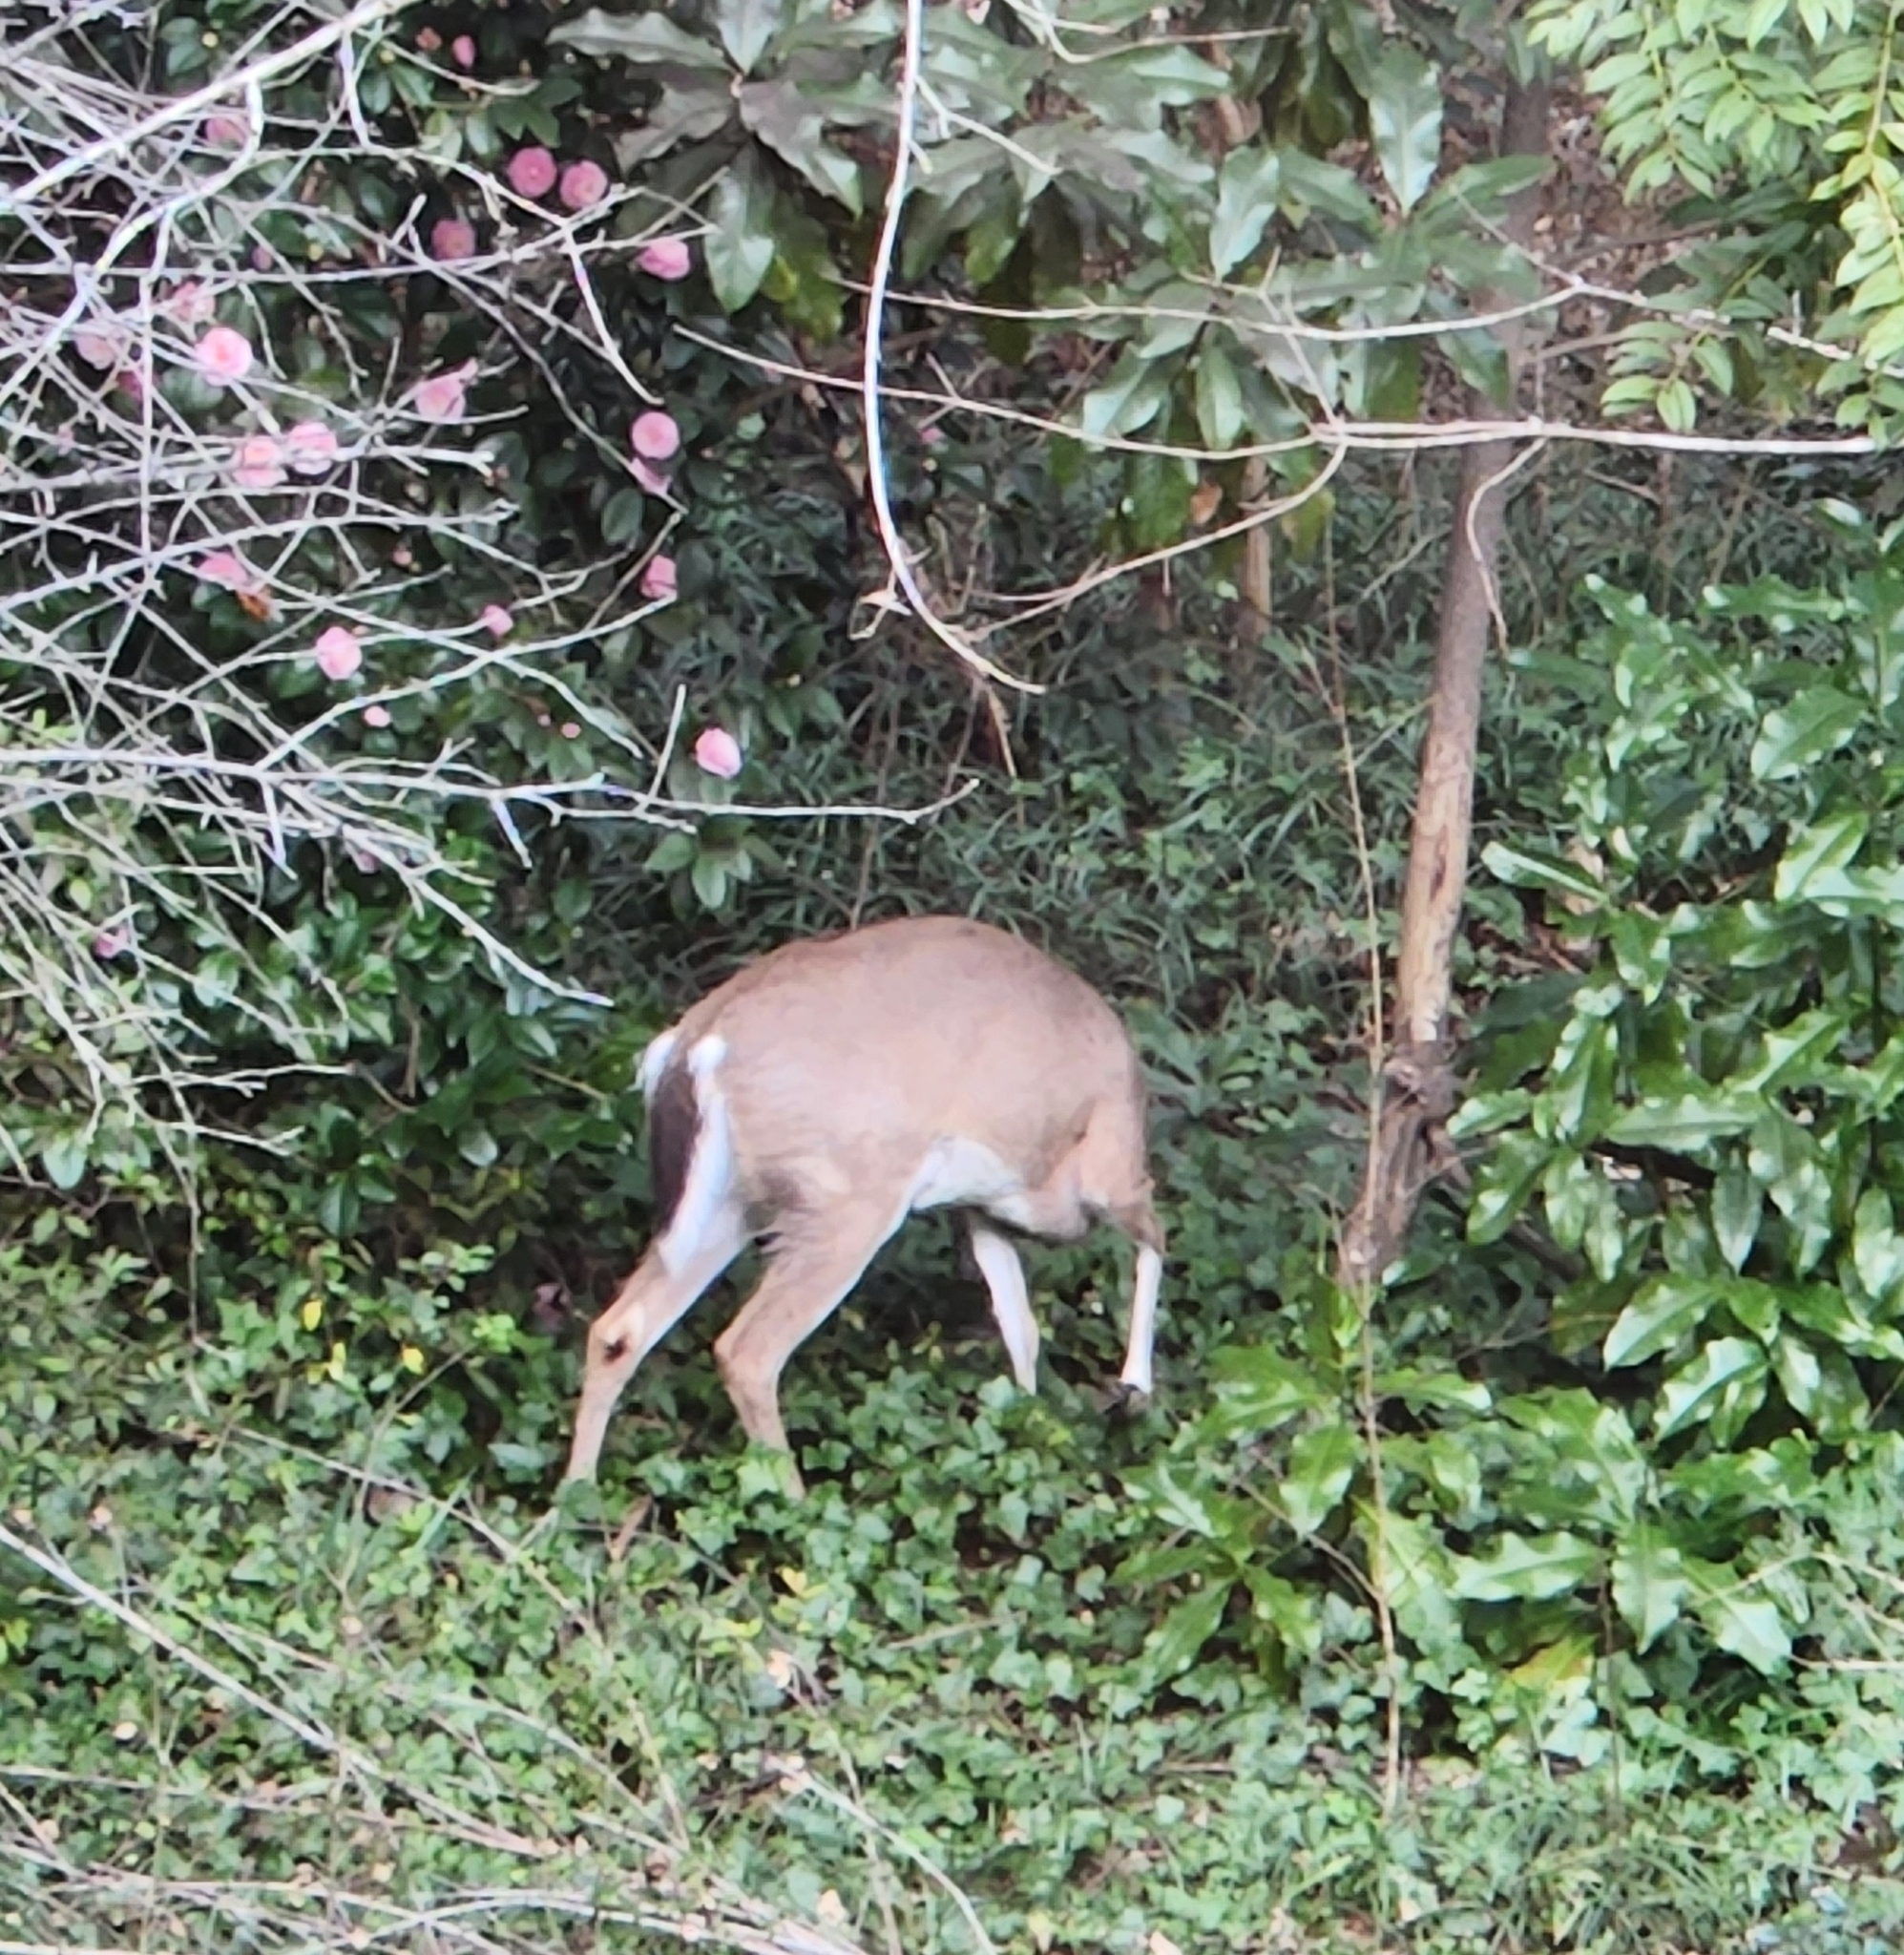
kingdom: Animalia
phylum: Chordata
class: Mammalia
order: Artiodactyla
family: Cervidae
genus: Odocoileus
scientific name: Odocoileus virginianus
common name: White-tailed deer
